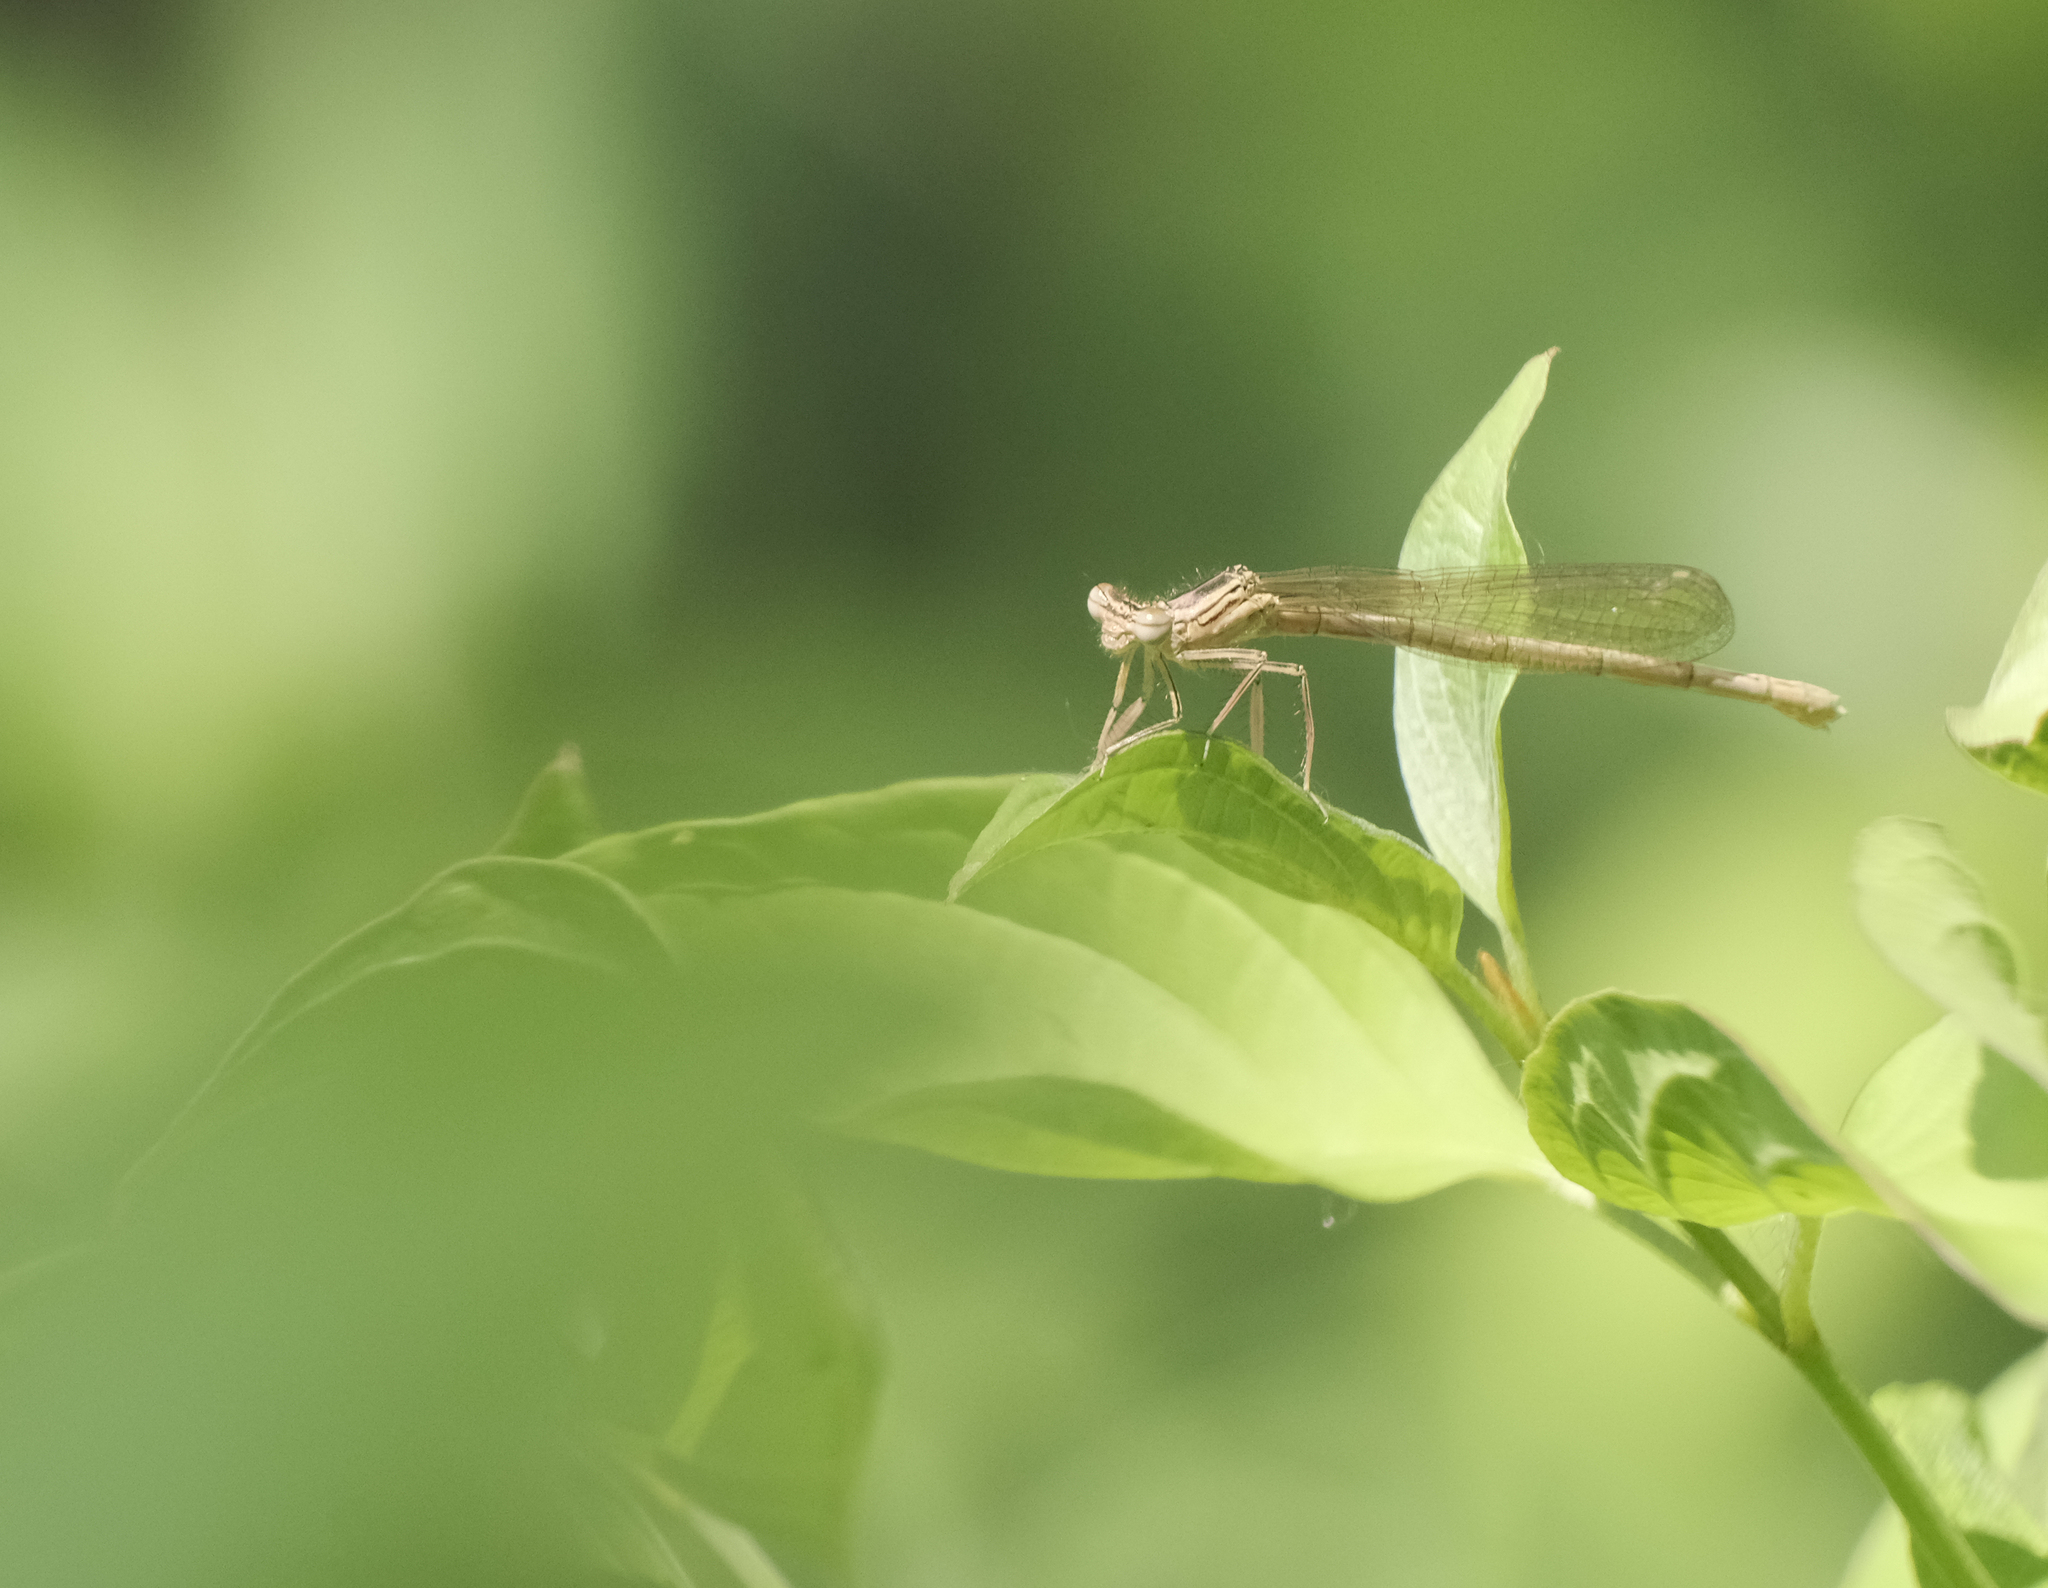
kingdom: Animalia
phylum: Arthropoda
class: Insecta
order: Odonata
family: Platycnemididae
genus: Platycnemis
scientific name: Platycnemis pennipes
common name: White-legged damselfly
